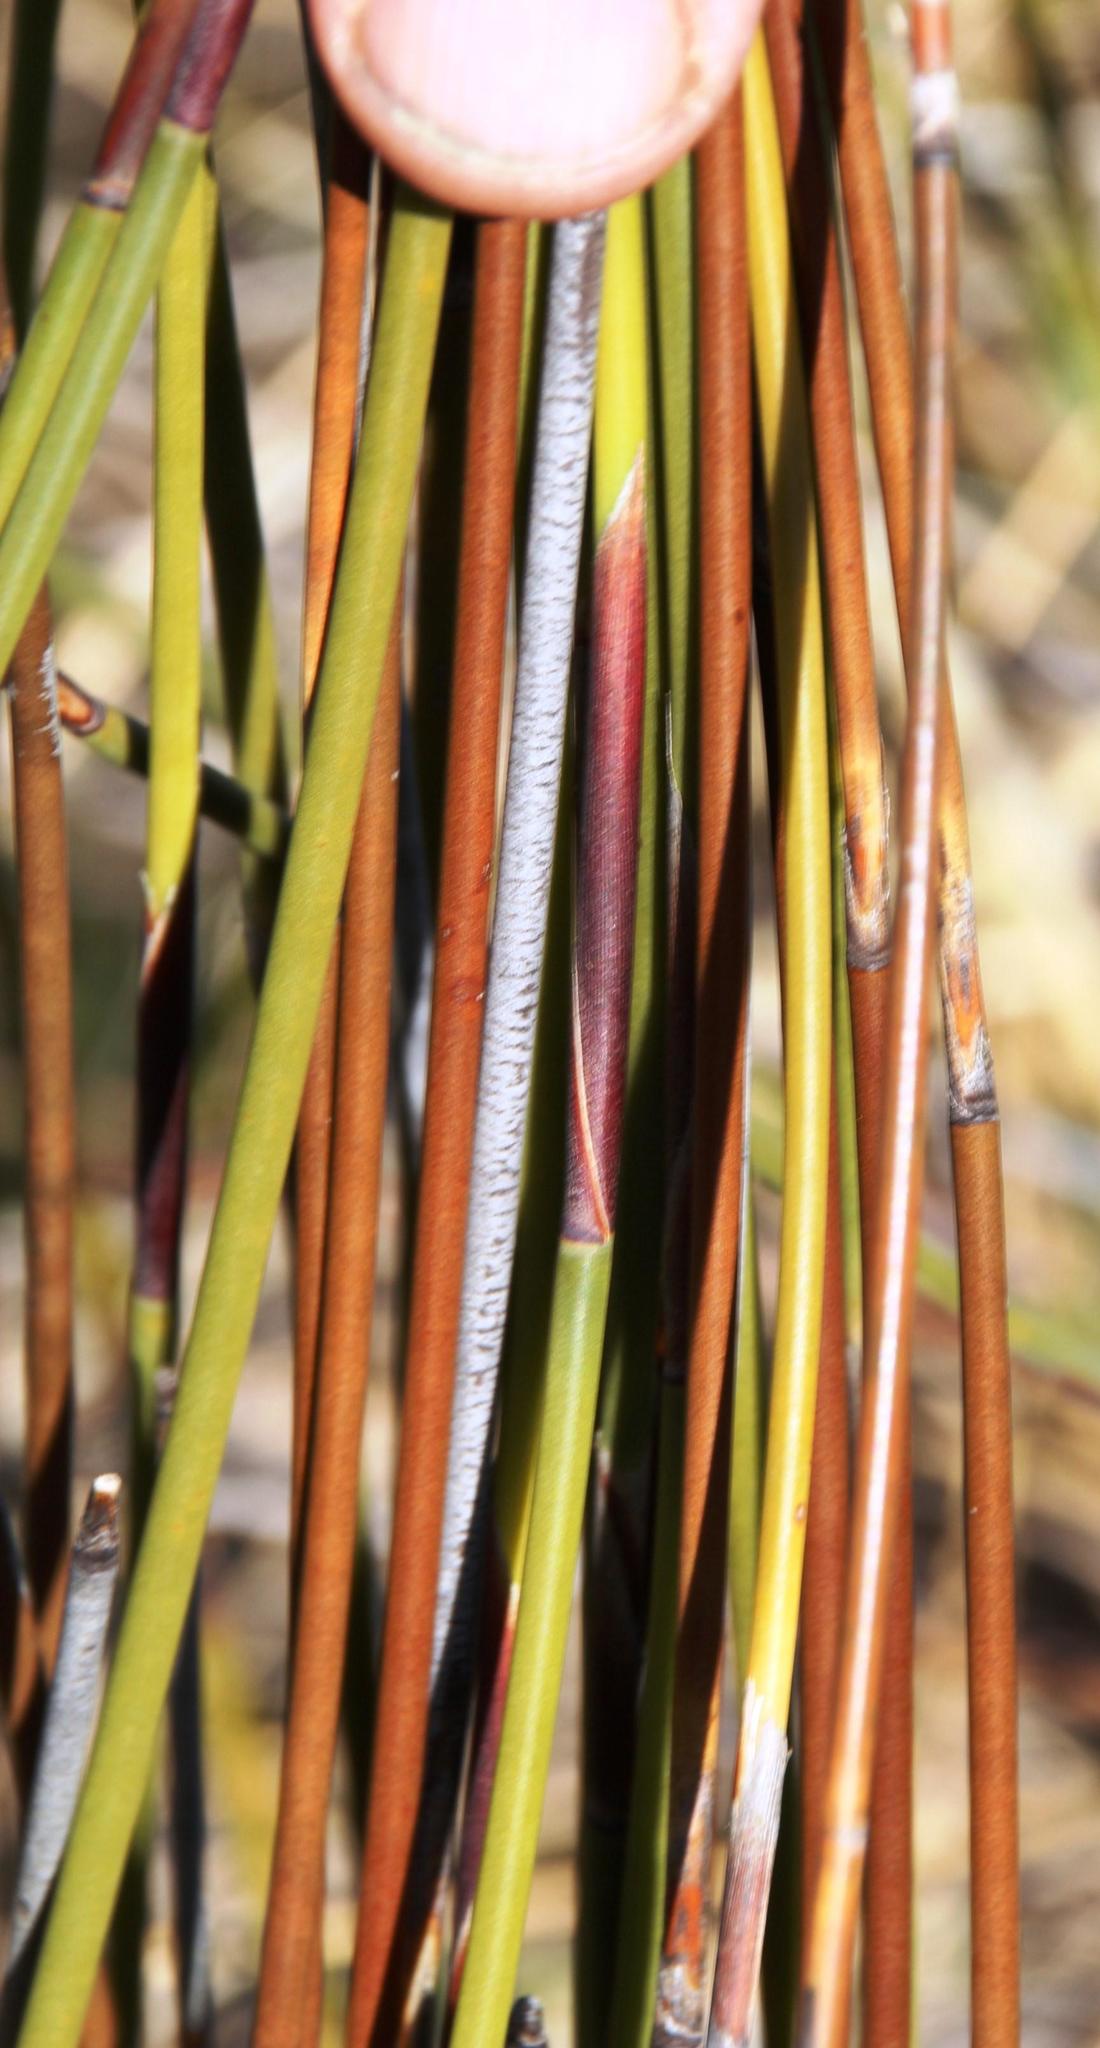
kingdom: Plantae
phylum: Tracheophyta
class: Liliopsida
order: Poales
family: Restionaceae
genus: Cannomois
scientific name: Cannomois scirpoides
